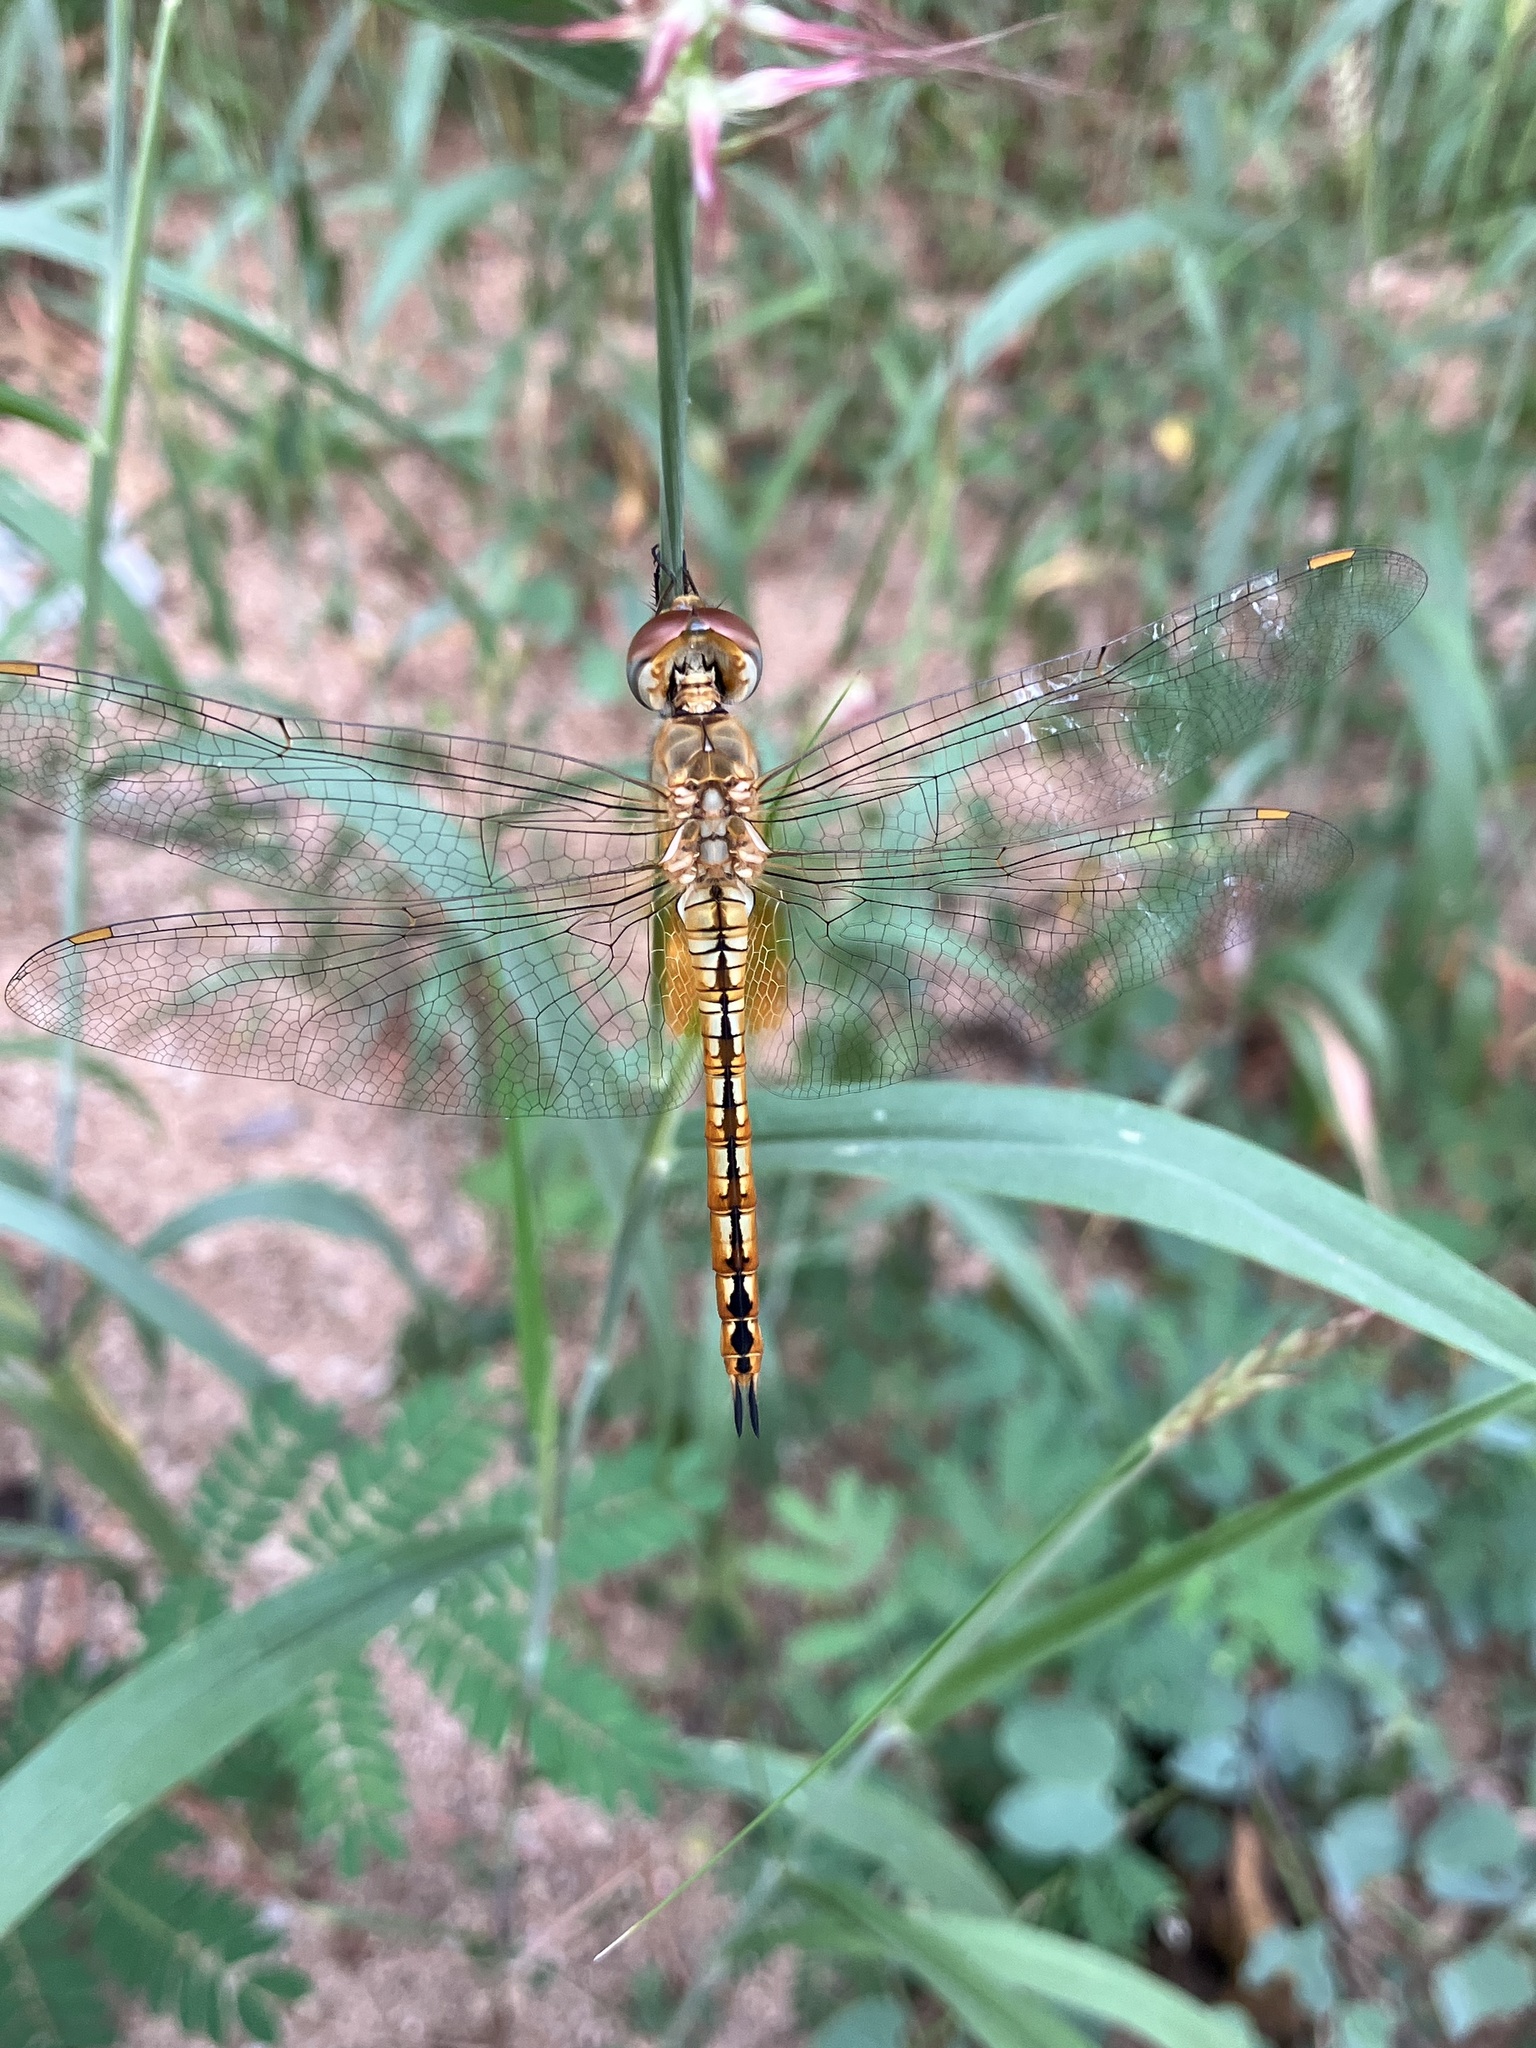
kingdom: Animalia
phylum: Arthropoda
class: Insecta
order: Odonata
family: Libellulidae
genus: Pantala
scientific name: Pantala flavescens
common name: Wandering glider
